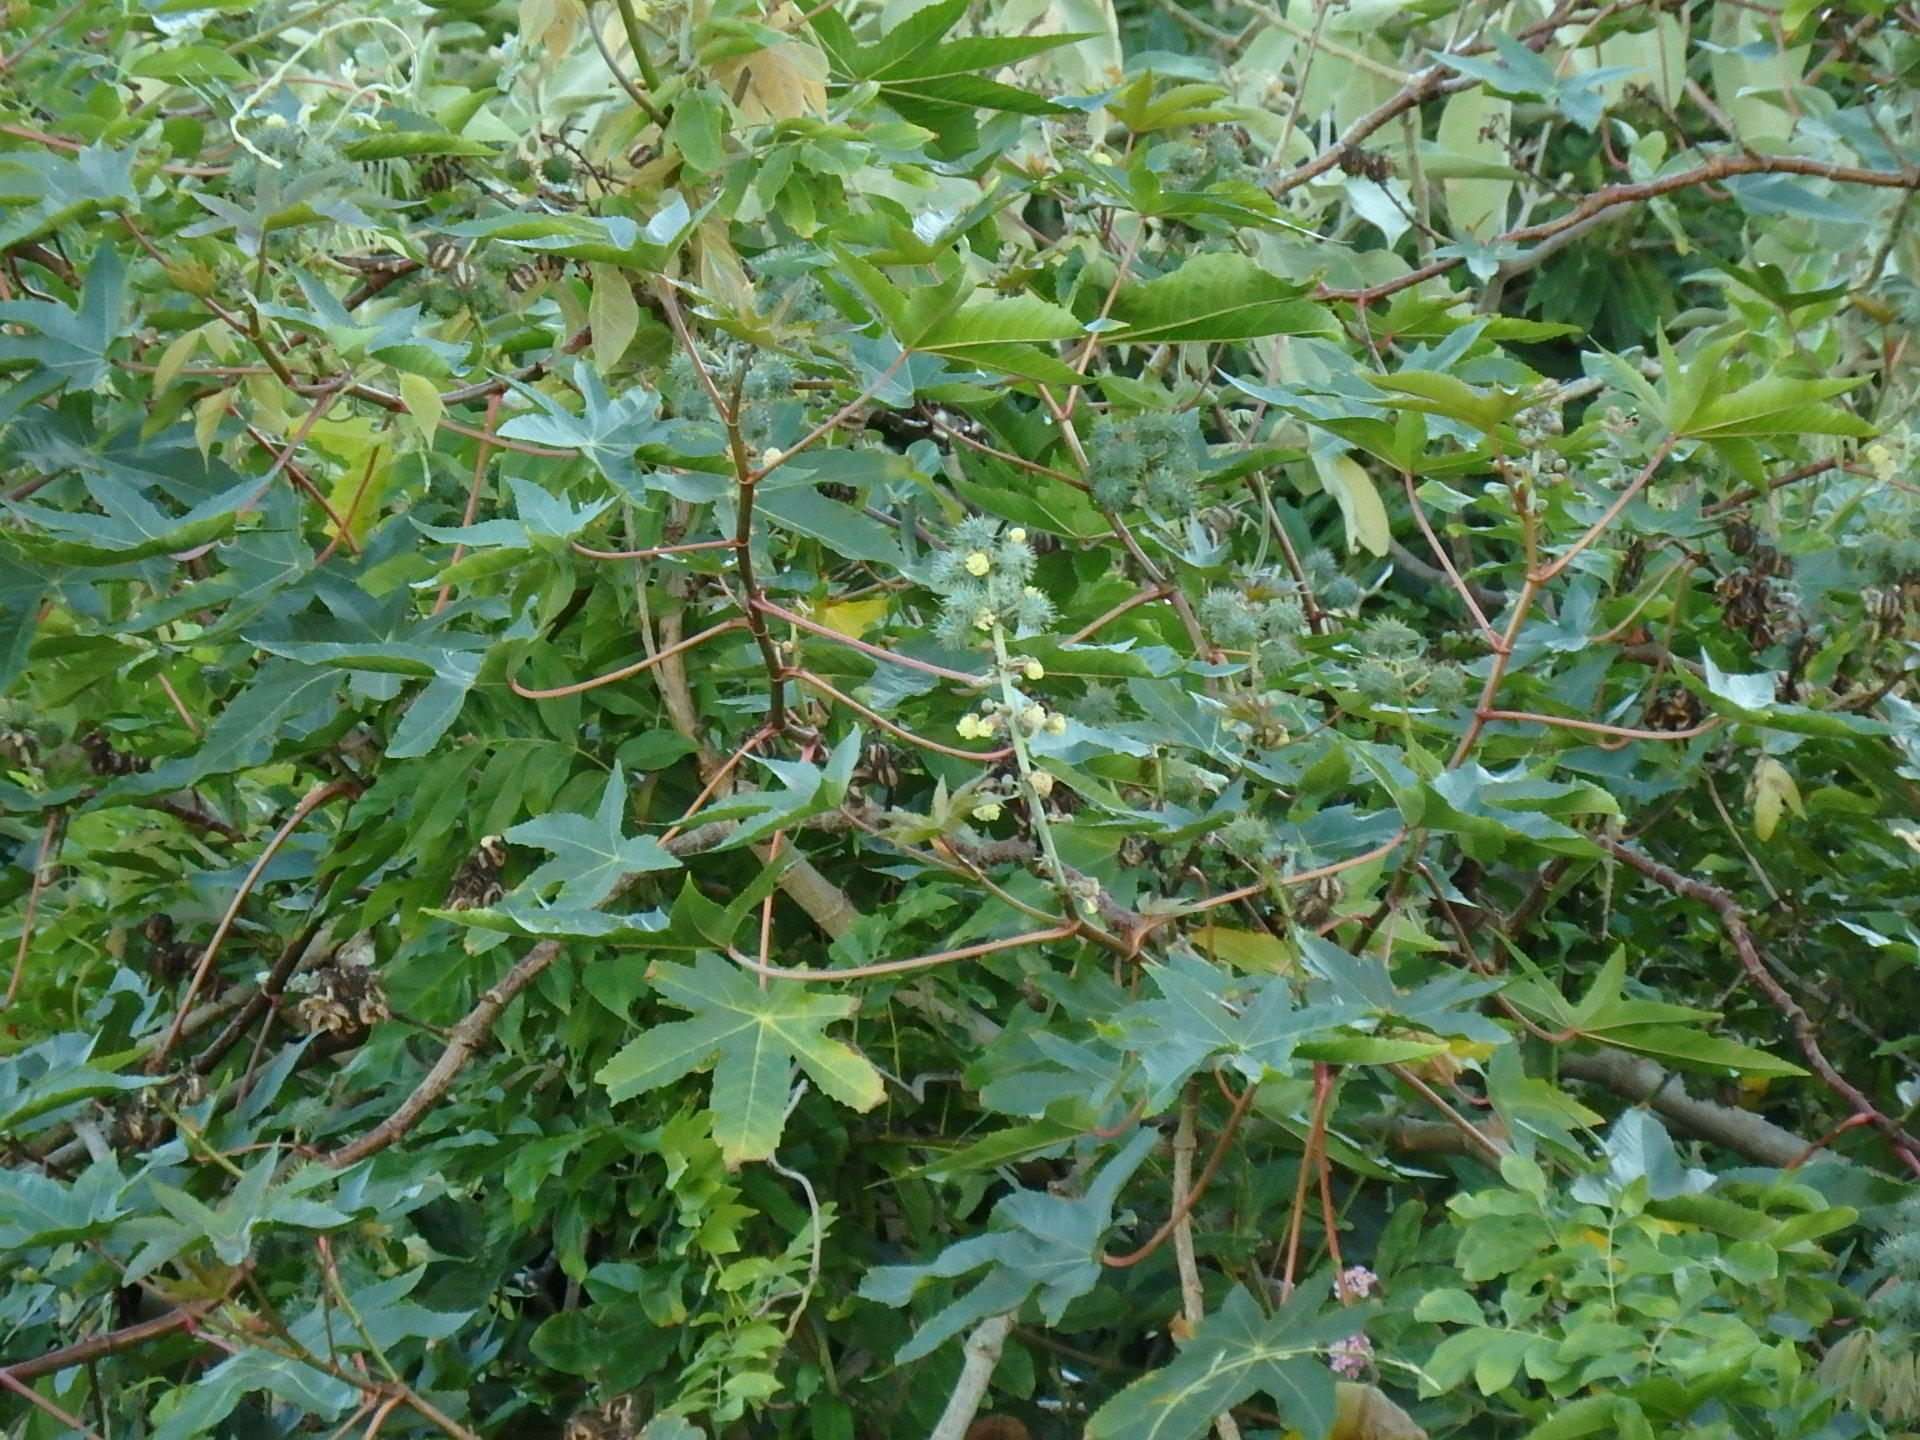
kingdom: Plantae
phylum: Tracheophyta
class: Magnoliopsida
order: Malpighiales
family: Euphorbiaceae
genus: Ricinus
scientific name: Ricinus communis
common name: Castor-oil-plant
